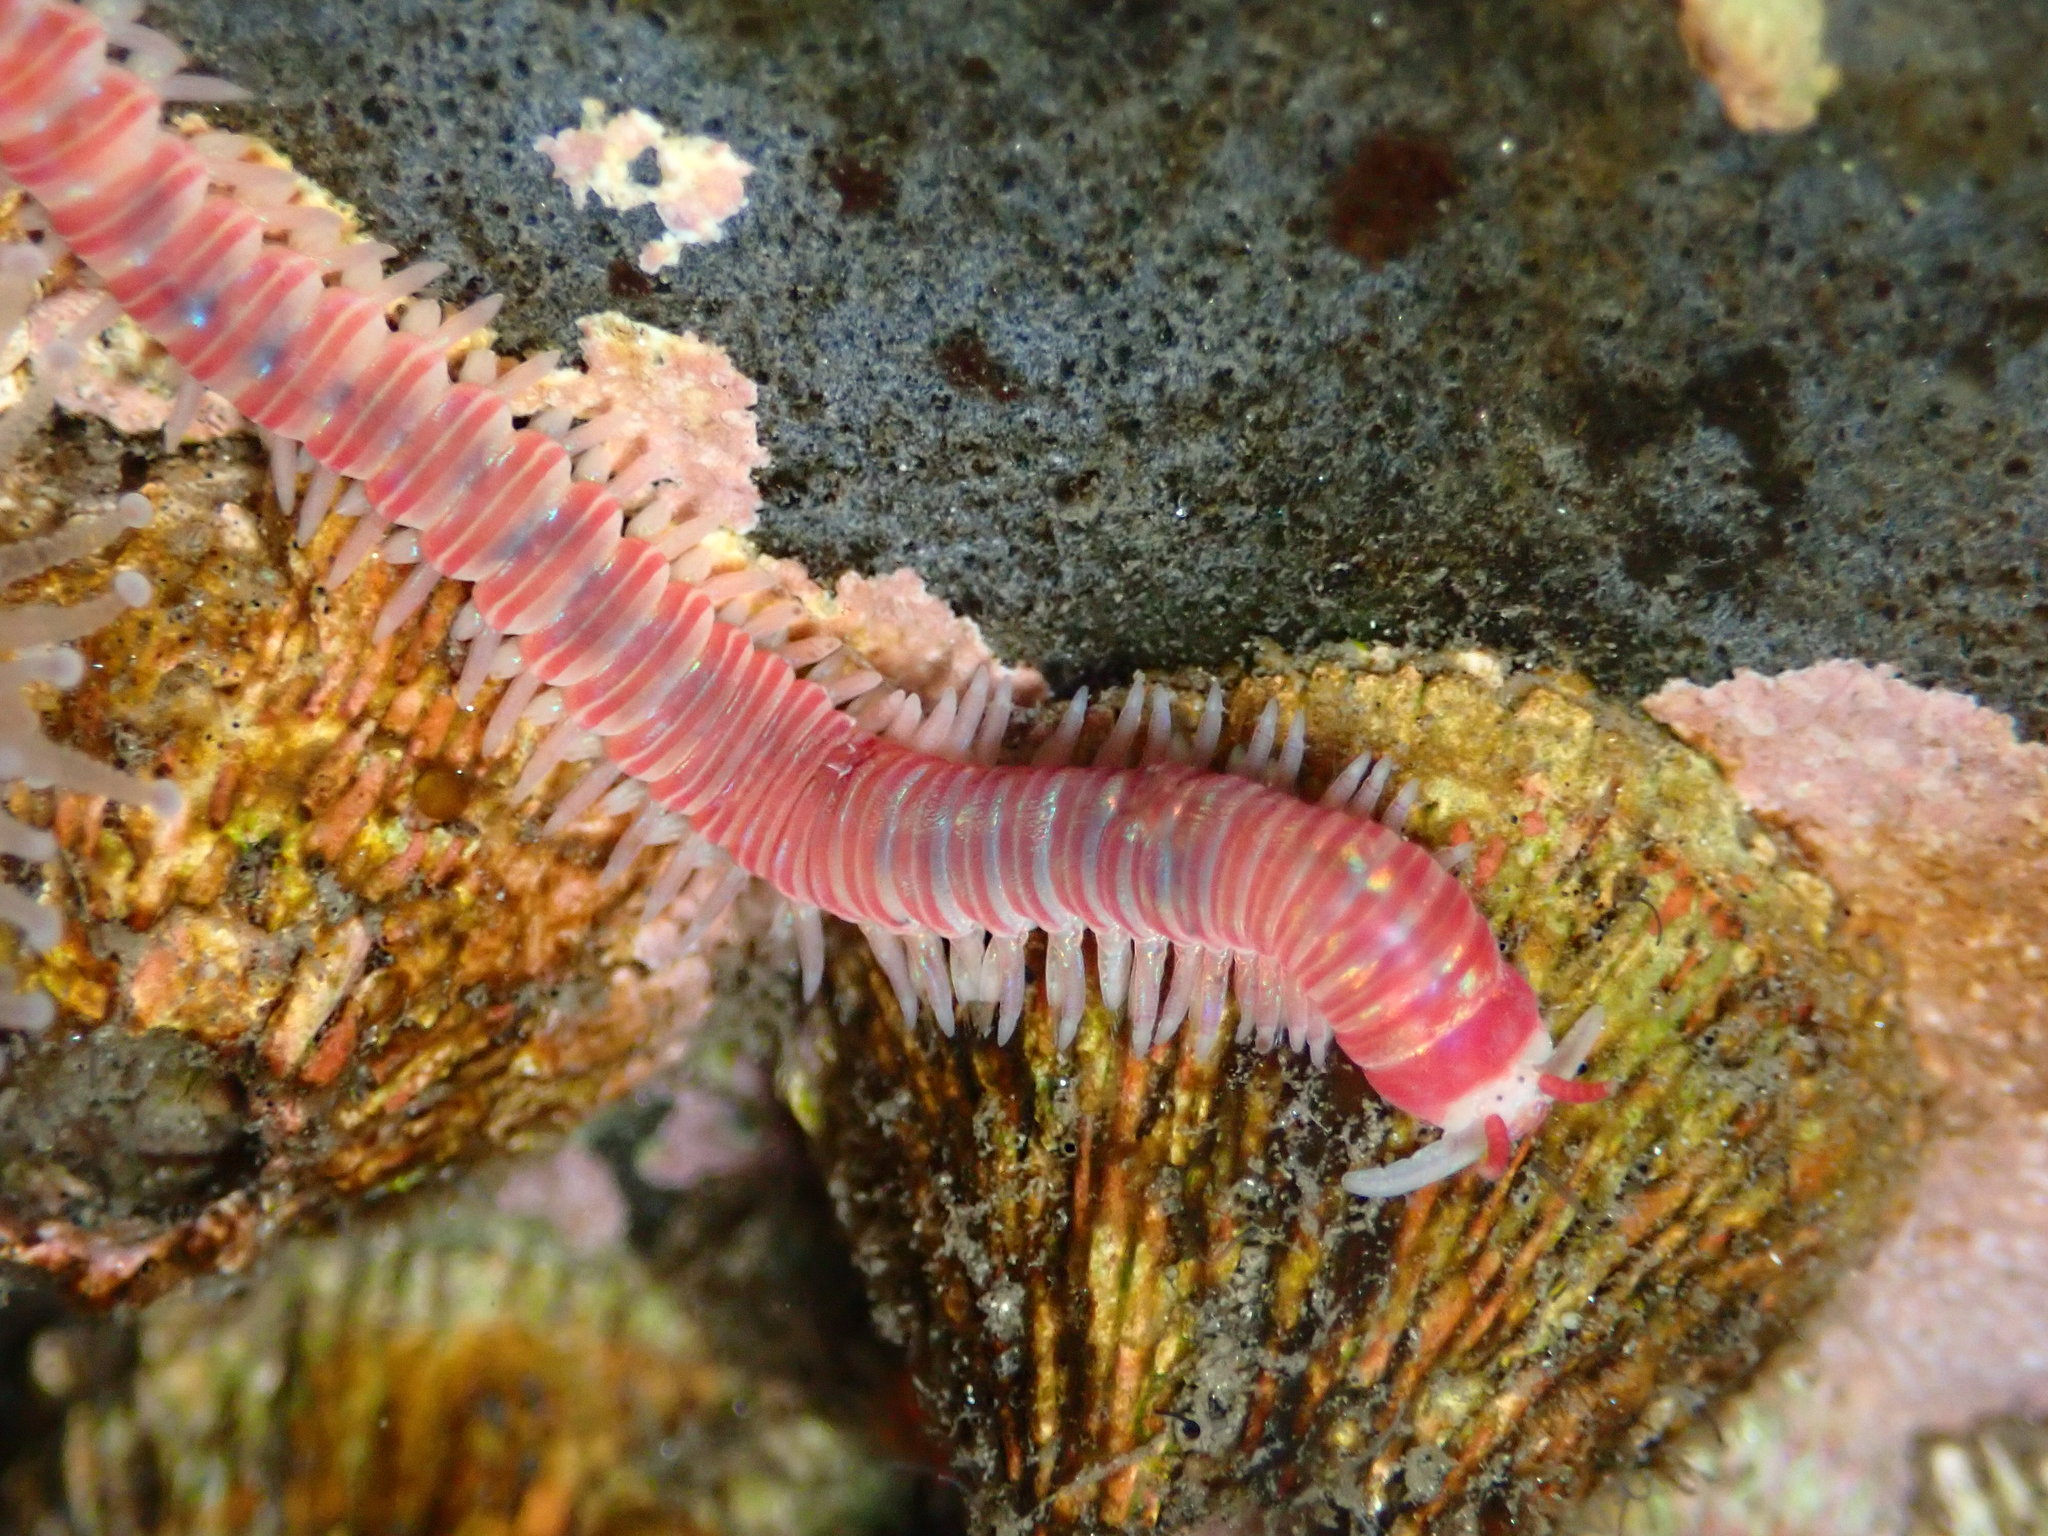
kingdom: Animalia
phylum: Annelida
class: Polychaeta
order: Eunicida
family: Dorvilleidae
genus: Dorvillea
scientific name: Dorvillea moniloceras
